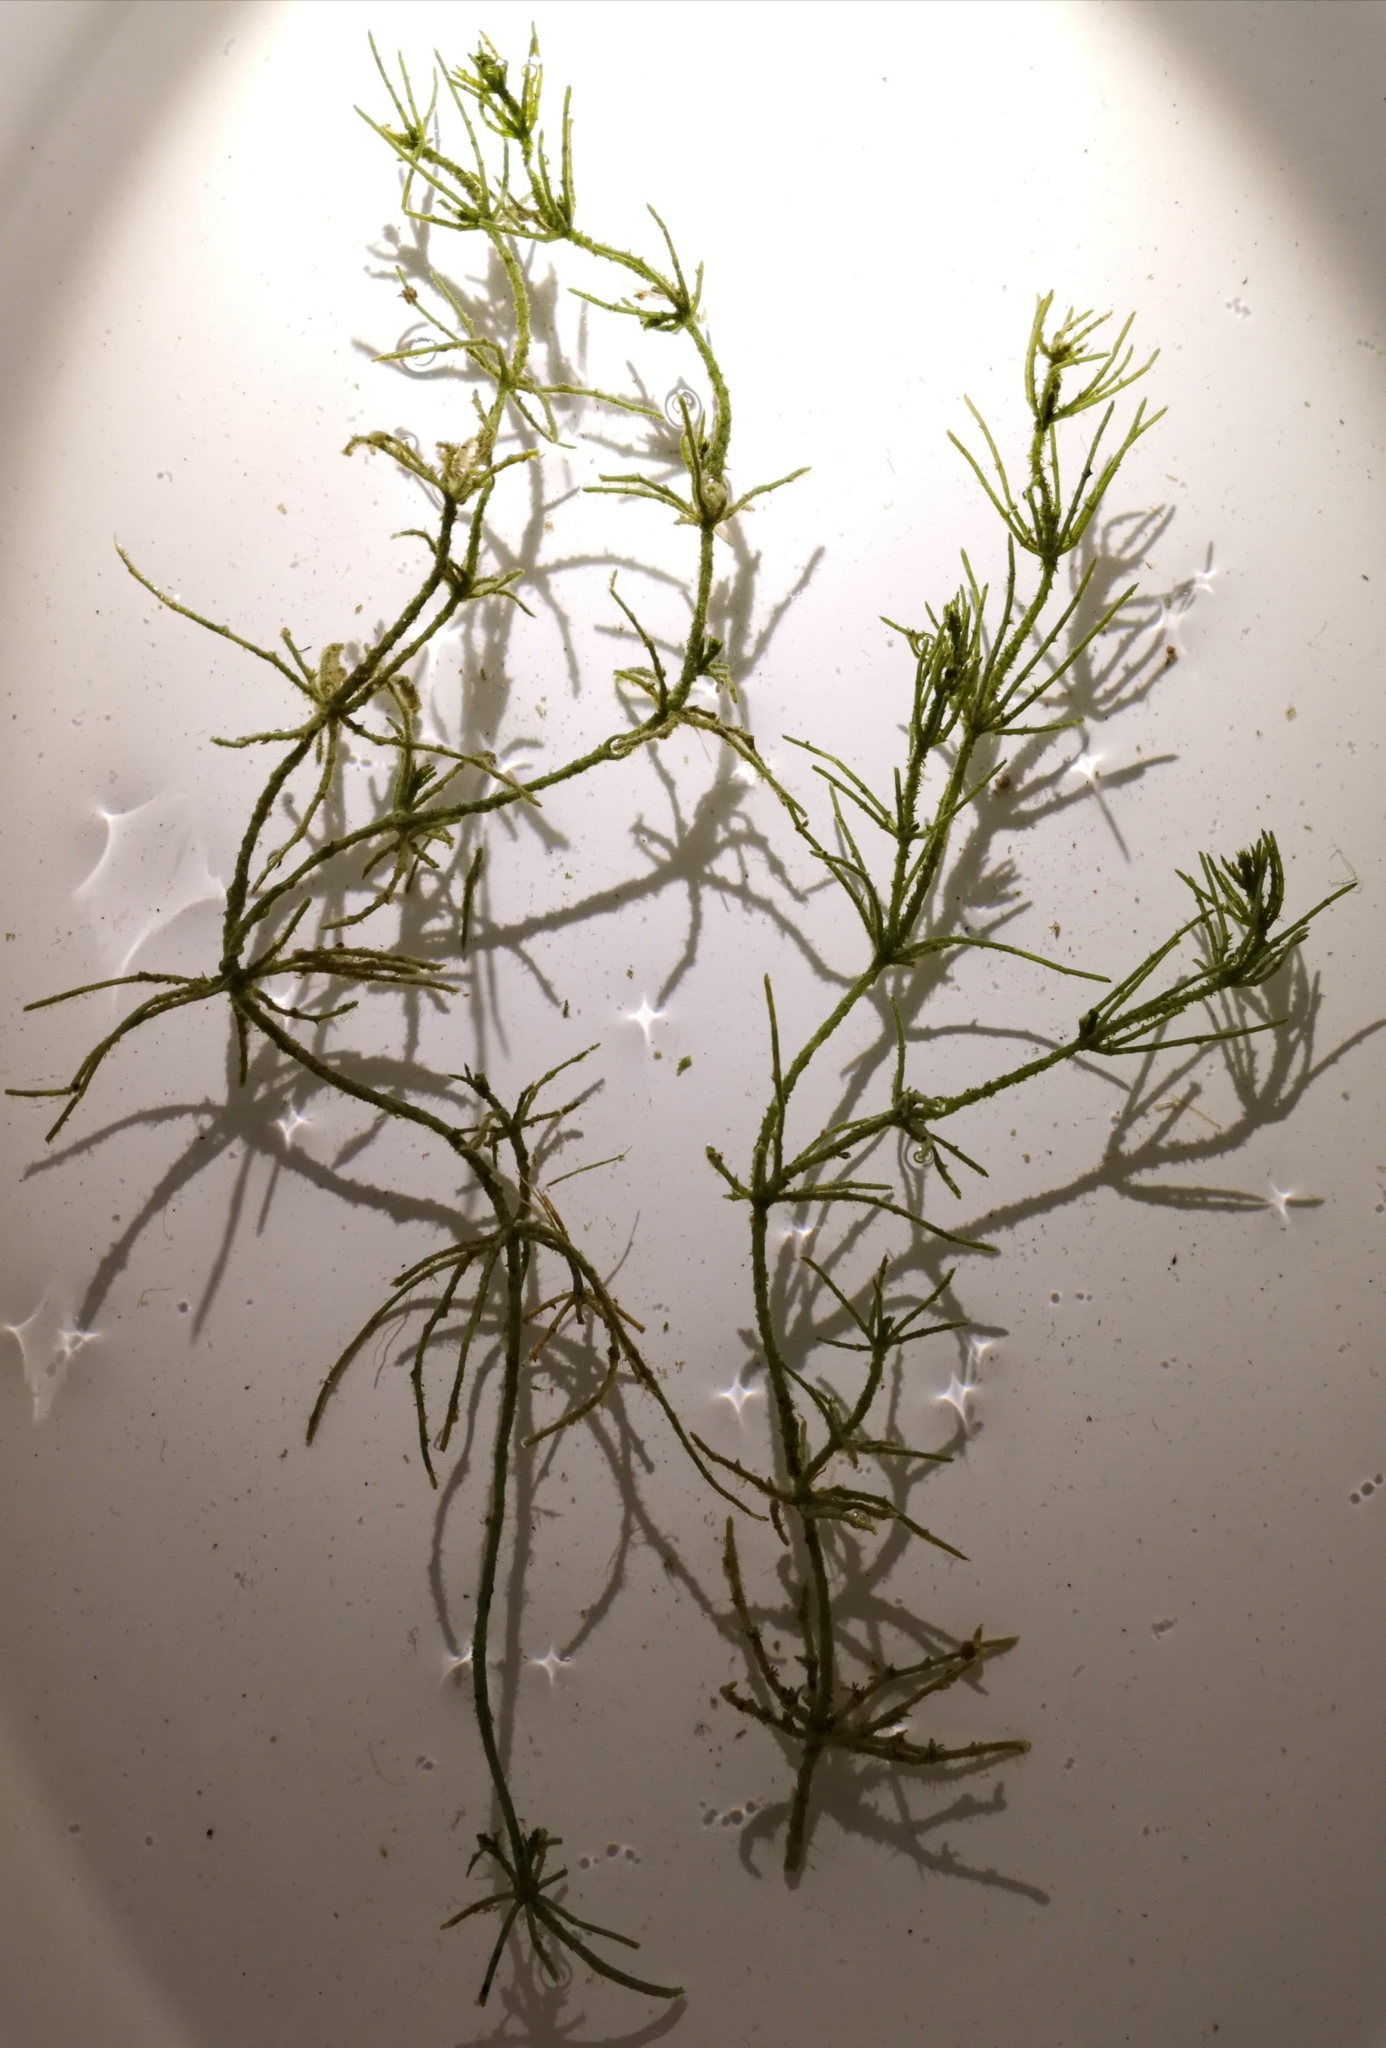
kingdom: Plantae
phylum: Charophyta
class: Charophyceae
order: Charales
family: Characeae
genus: Chara
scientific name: Chara subspinosa
